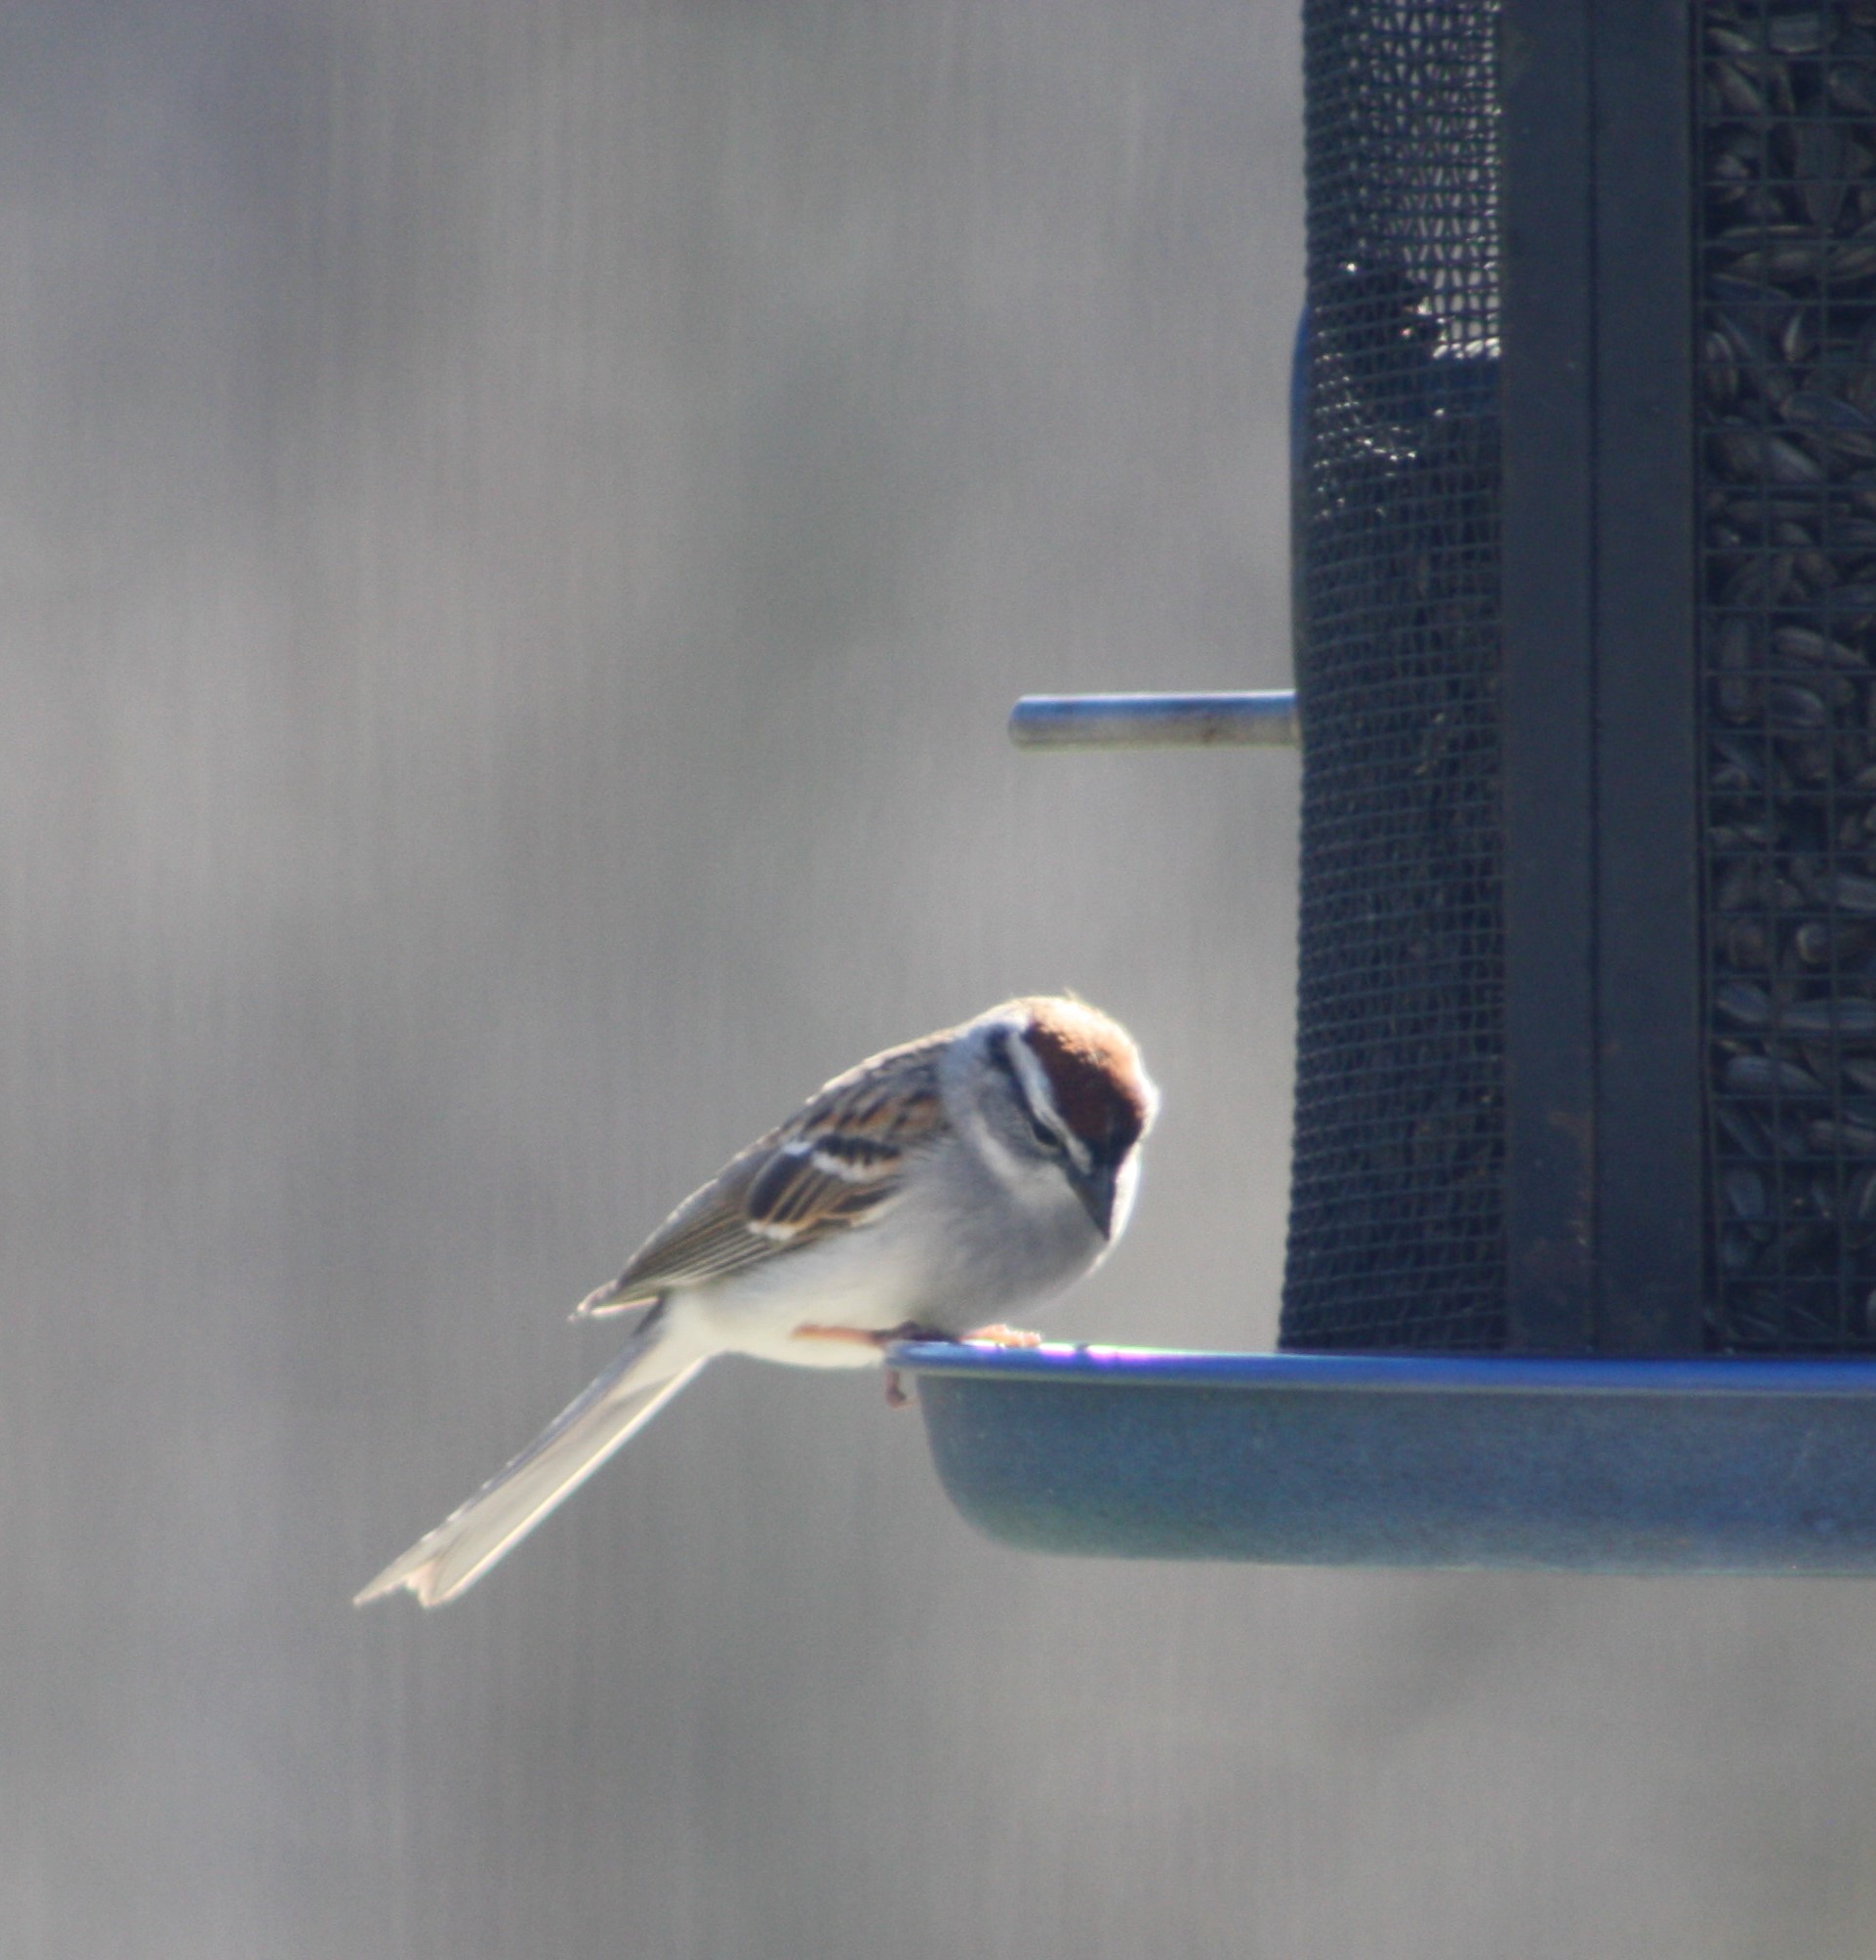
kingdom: Animalia
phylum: Chordata
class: Aves
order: Passeriformes
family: Passerellidae
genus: Spizella
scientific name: Spizella passerina
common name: Chipping sparrow
